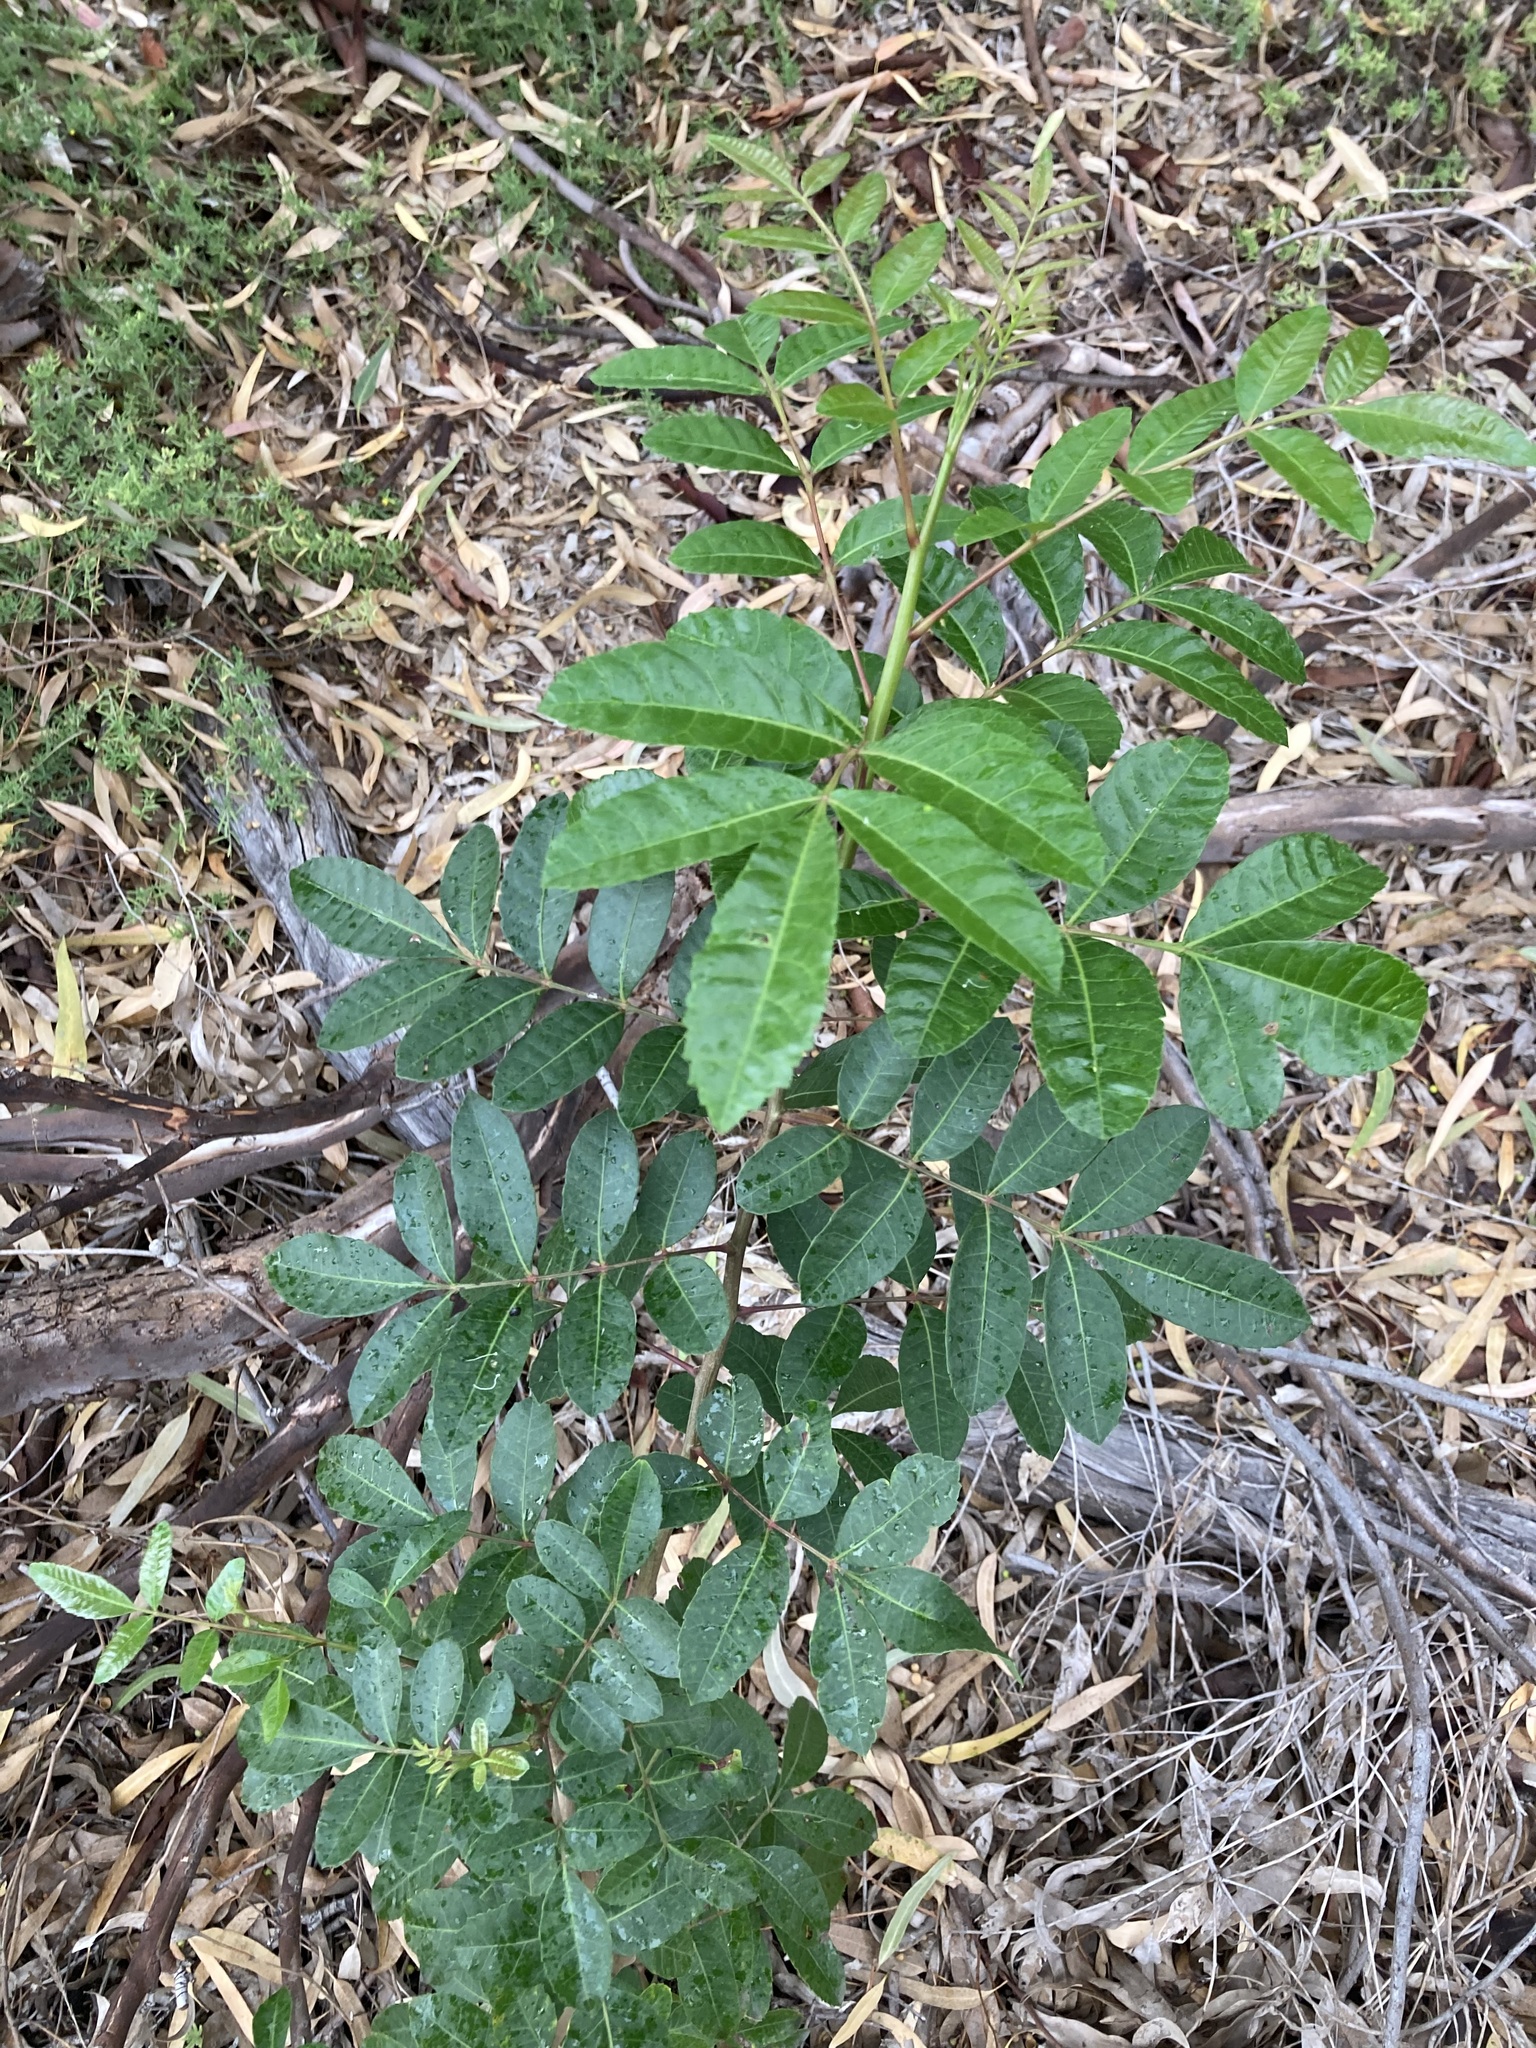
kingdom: Plantae
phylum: Tracheophyta
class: Magnoliopsida
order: Sapindales
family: Anacardiaceae
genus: Schinus
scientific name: Schinus terebinthifolia
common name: Brazilian peppertree
